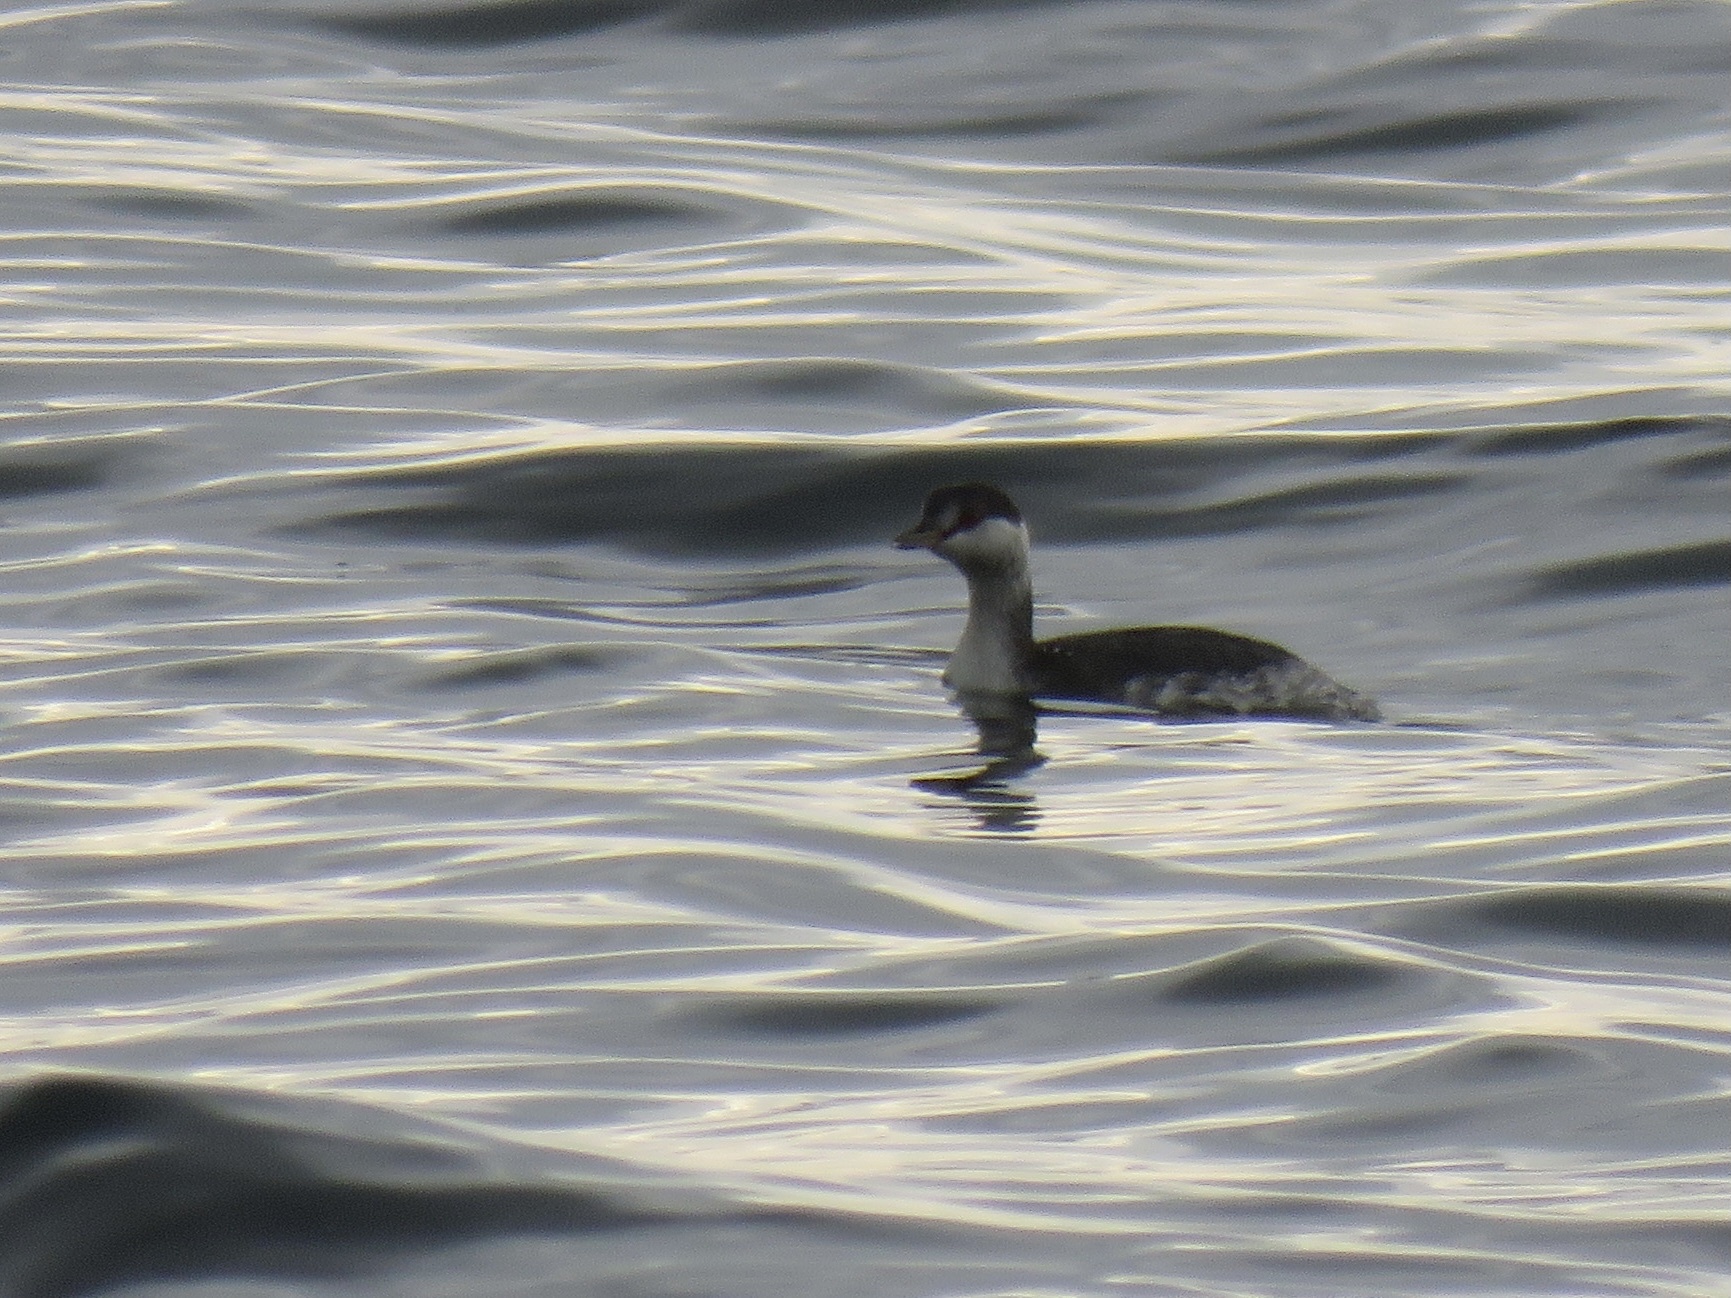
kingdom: Animalia
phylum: Chordata
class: Aves
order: Podicipediformes
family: Podicipedidae
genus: Podiceps
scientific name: Podiceps auritus
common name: Horned grebe
